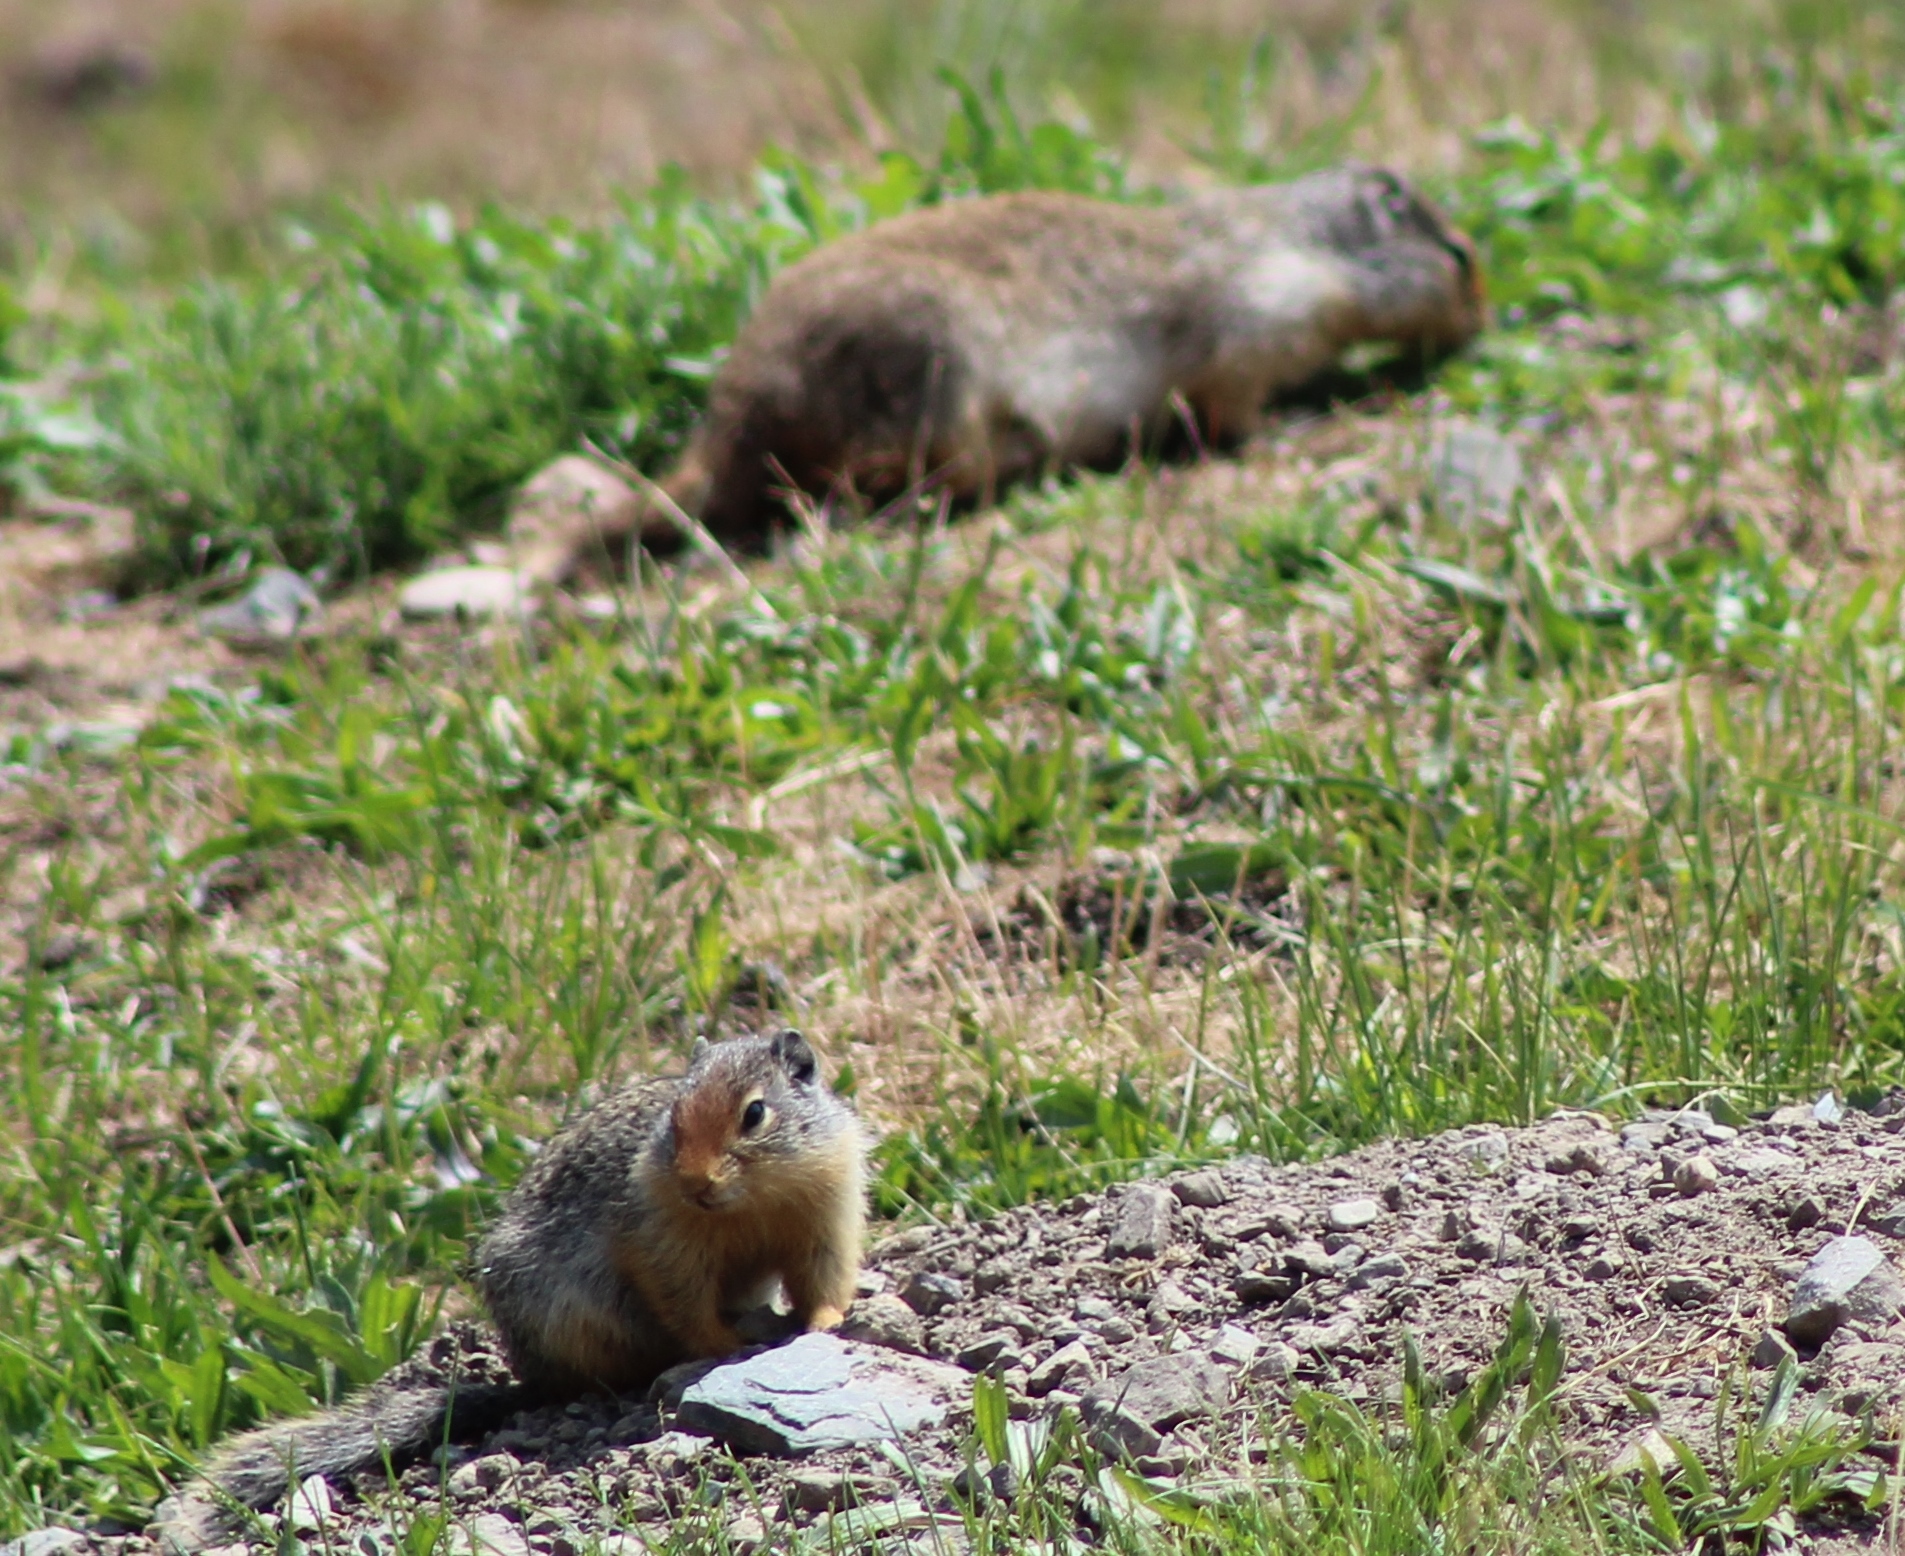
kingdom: Animalia
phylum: Chordata
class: Mammalia
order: Rodentia
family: Sciuridae
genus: Urocitellus
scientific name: Urocitellus columbianus
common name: Columbian ground squirrel
